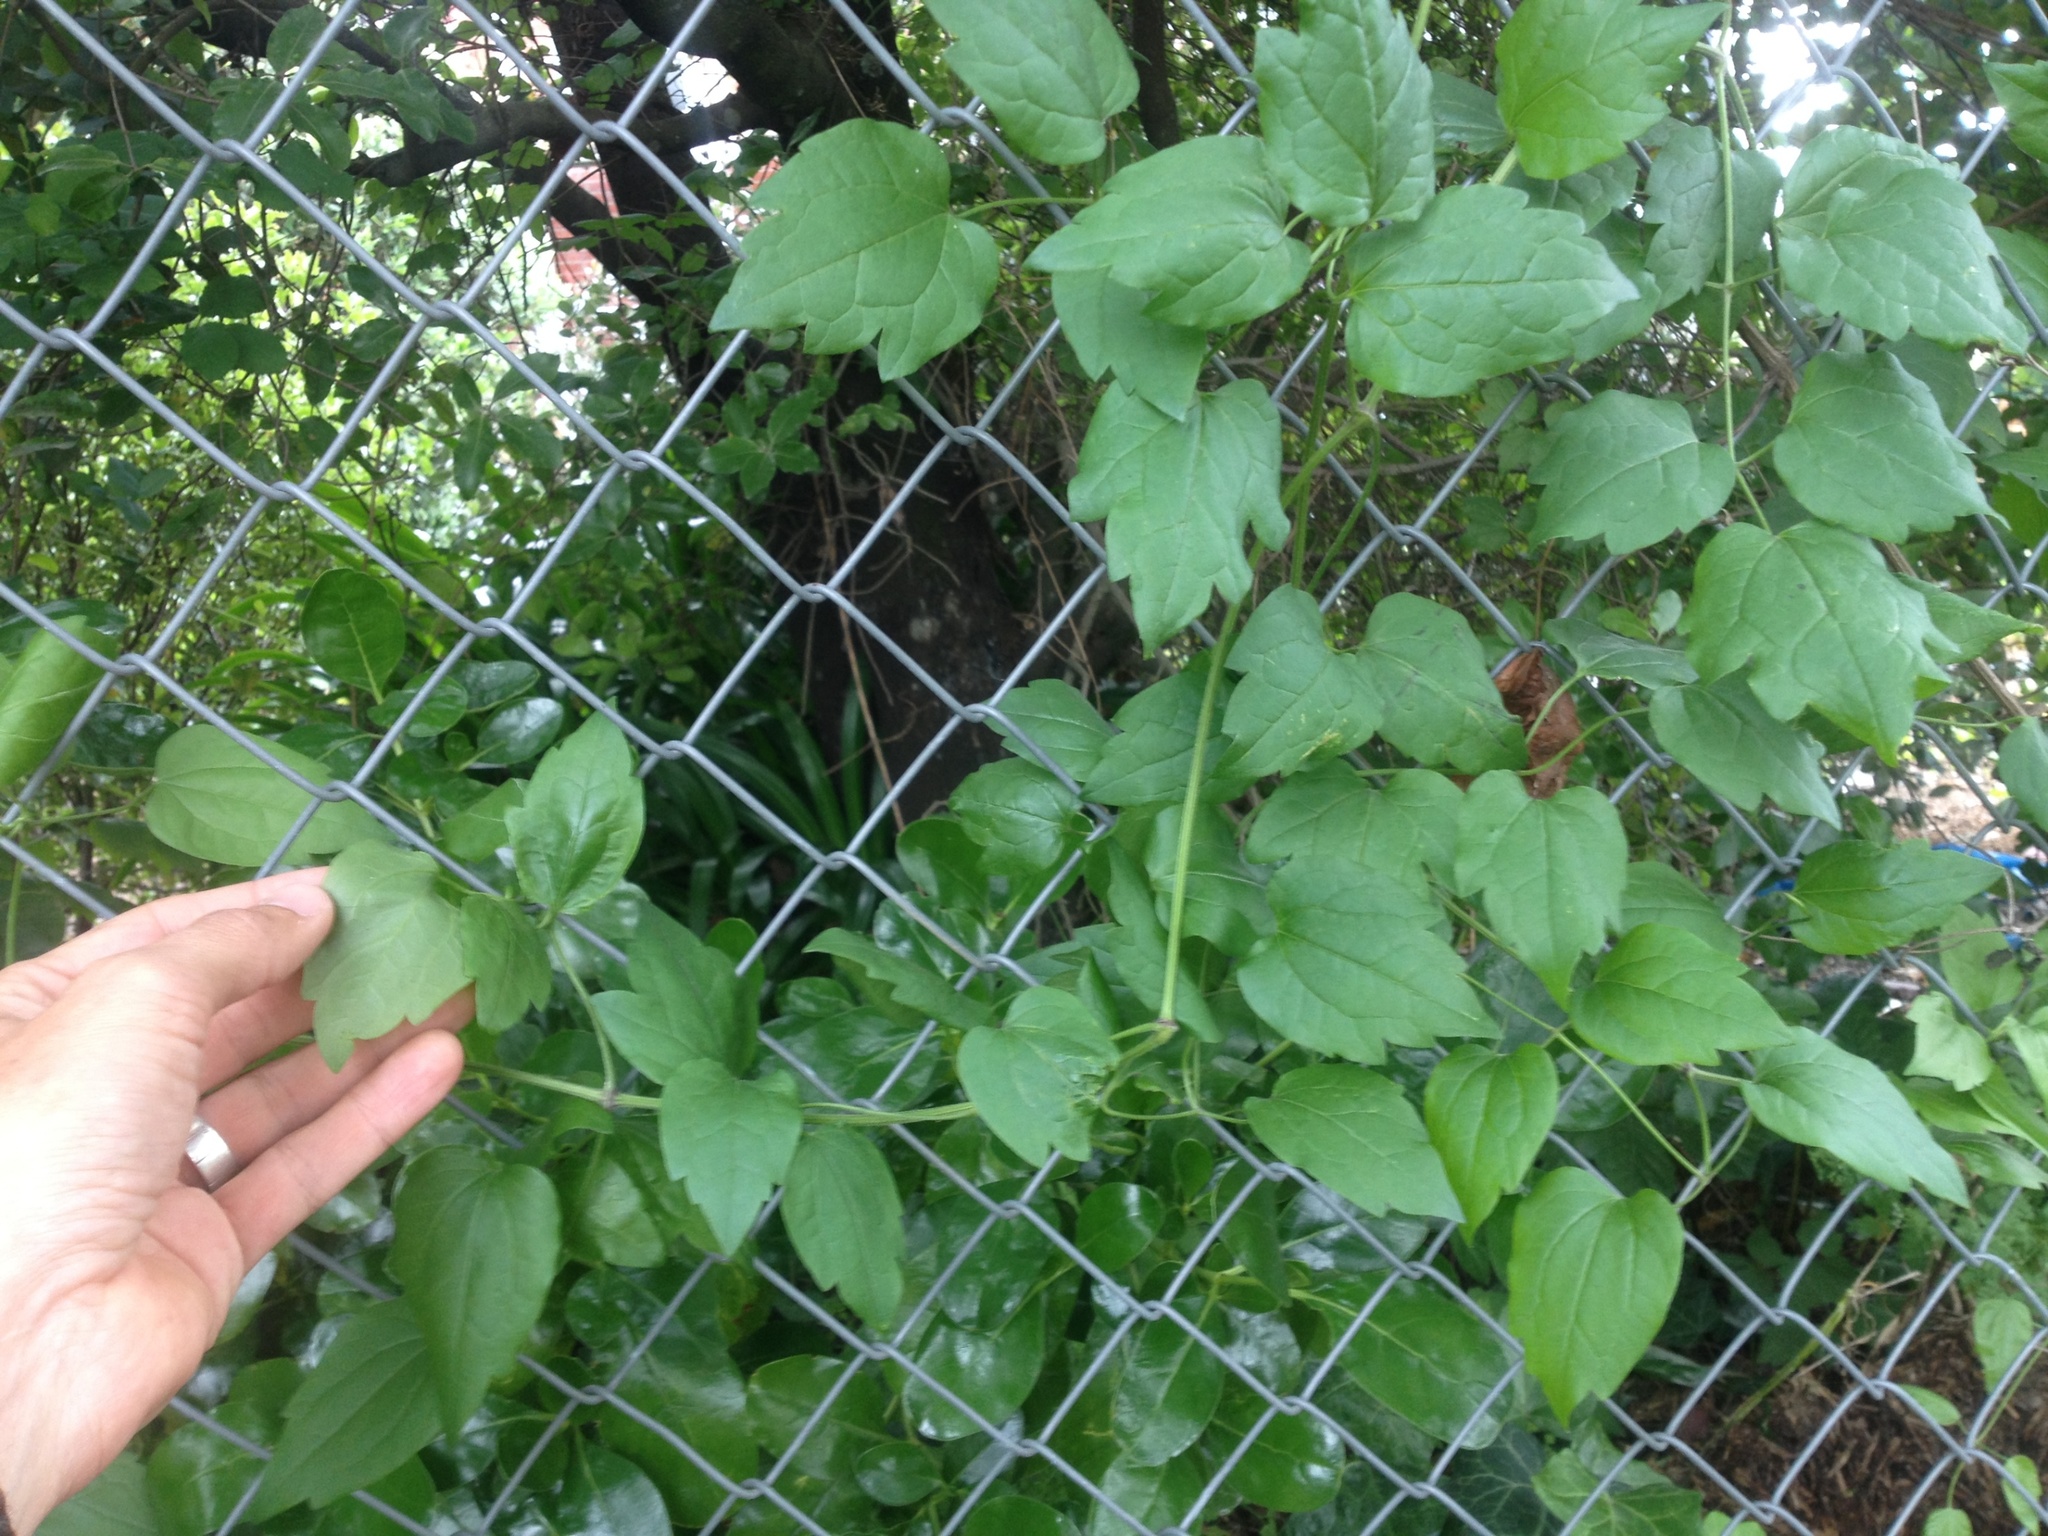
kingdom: Plantae
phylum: Tracheophyta
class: Magnoliopsida
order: Ranunculales
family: Ranunculaceae
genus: Clematis
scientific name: Clematis vitalba
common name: Evergreen clematis
